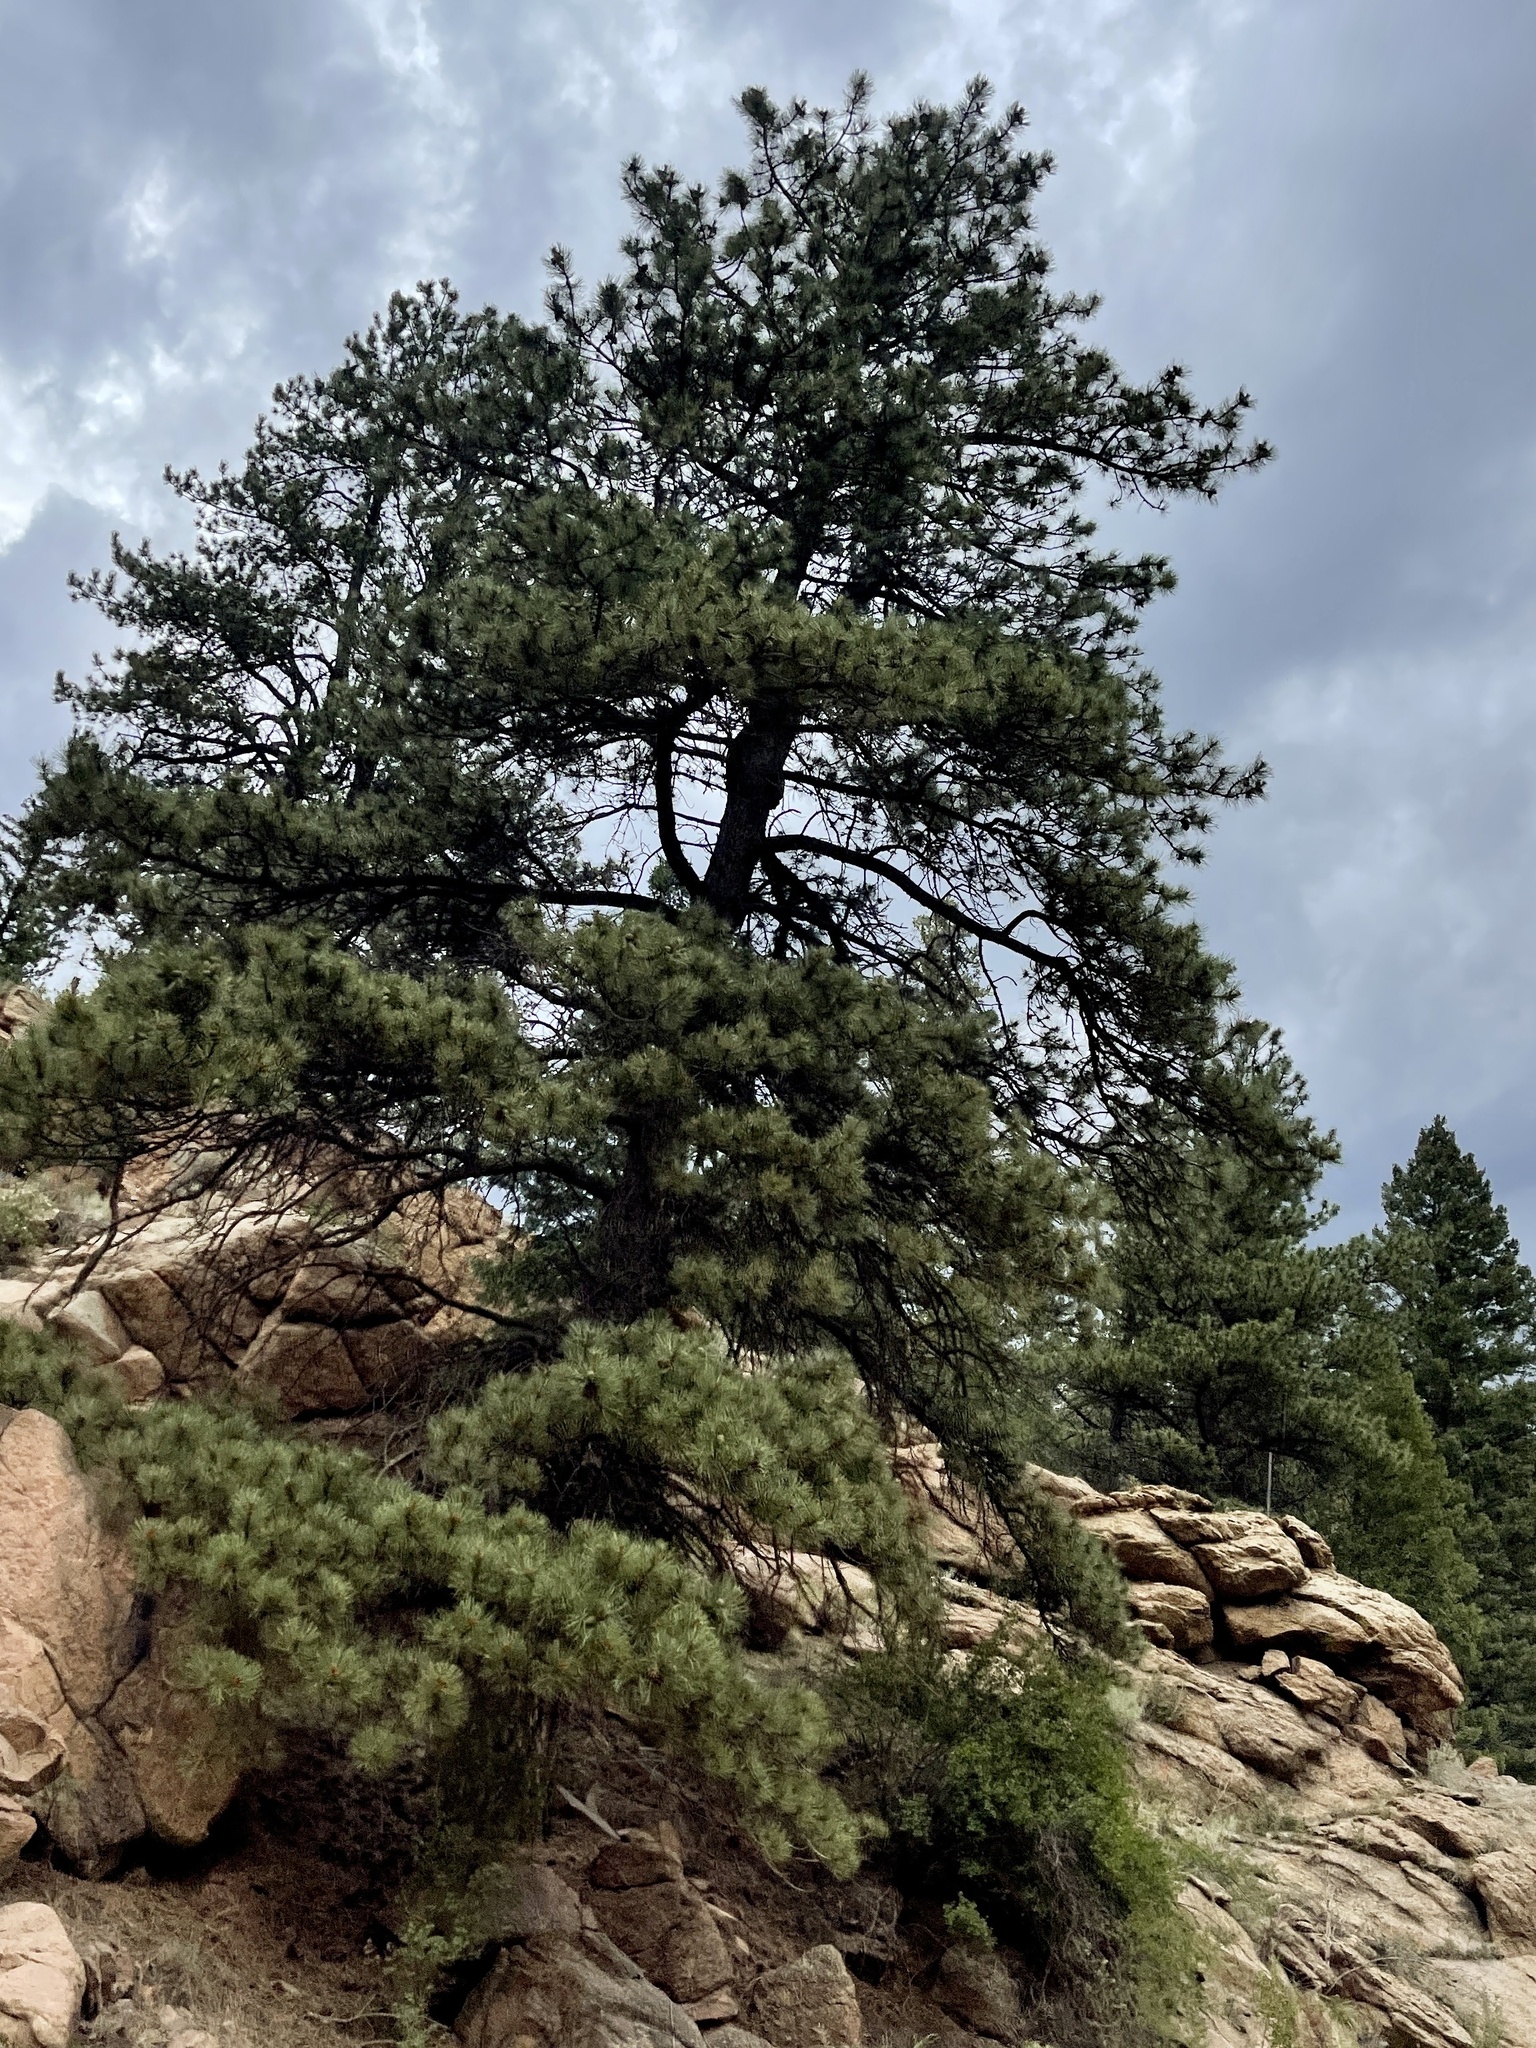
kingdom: Plantae
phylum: Tracheophyta
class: Pinopsida
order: Pinales
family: Pinaceae
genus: Pinus
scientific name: Pinus ponderosa
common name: Western yellow-pine
